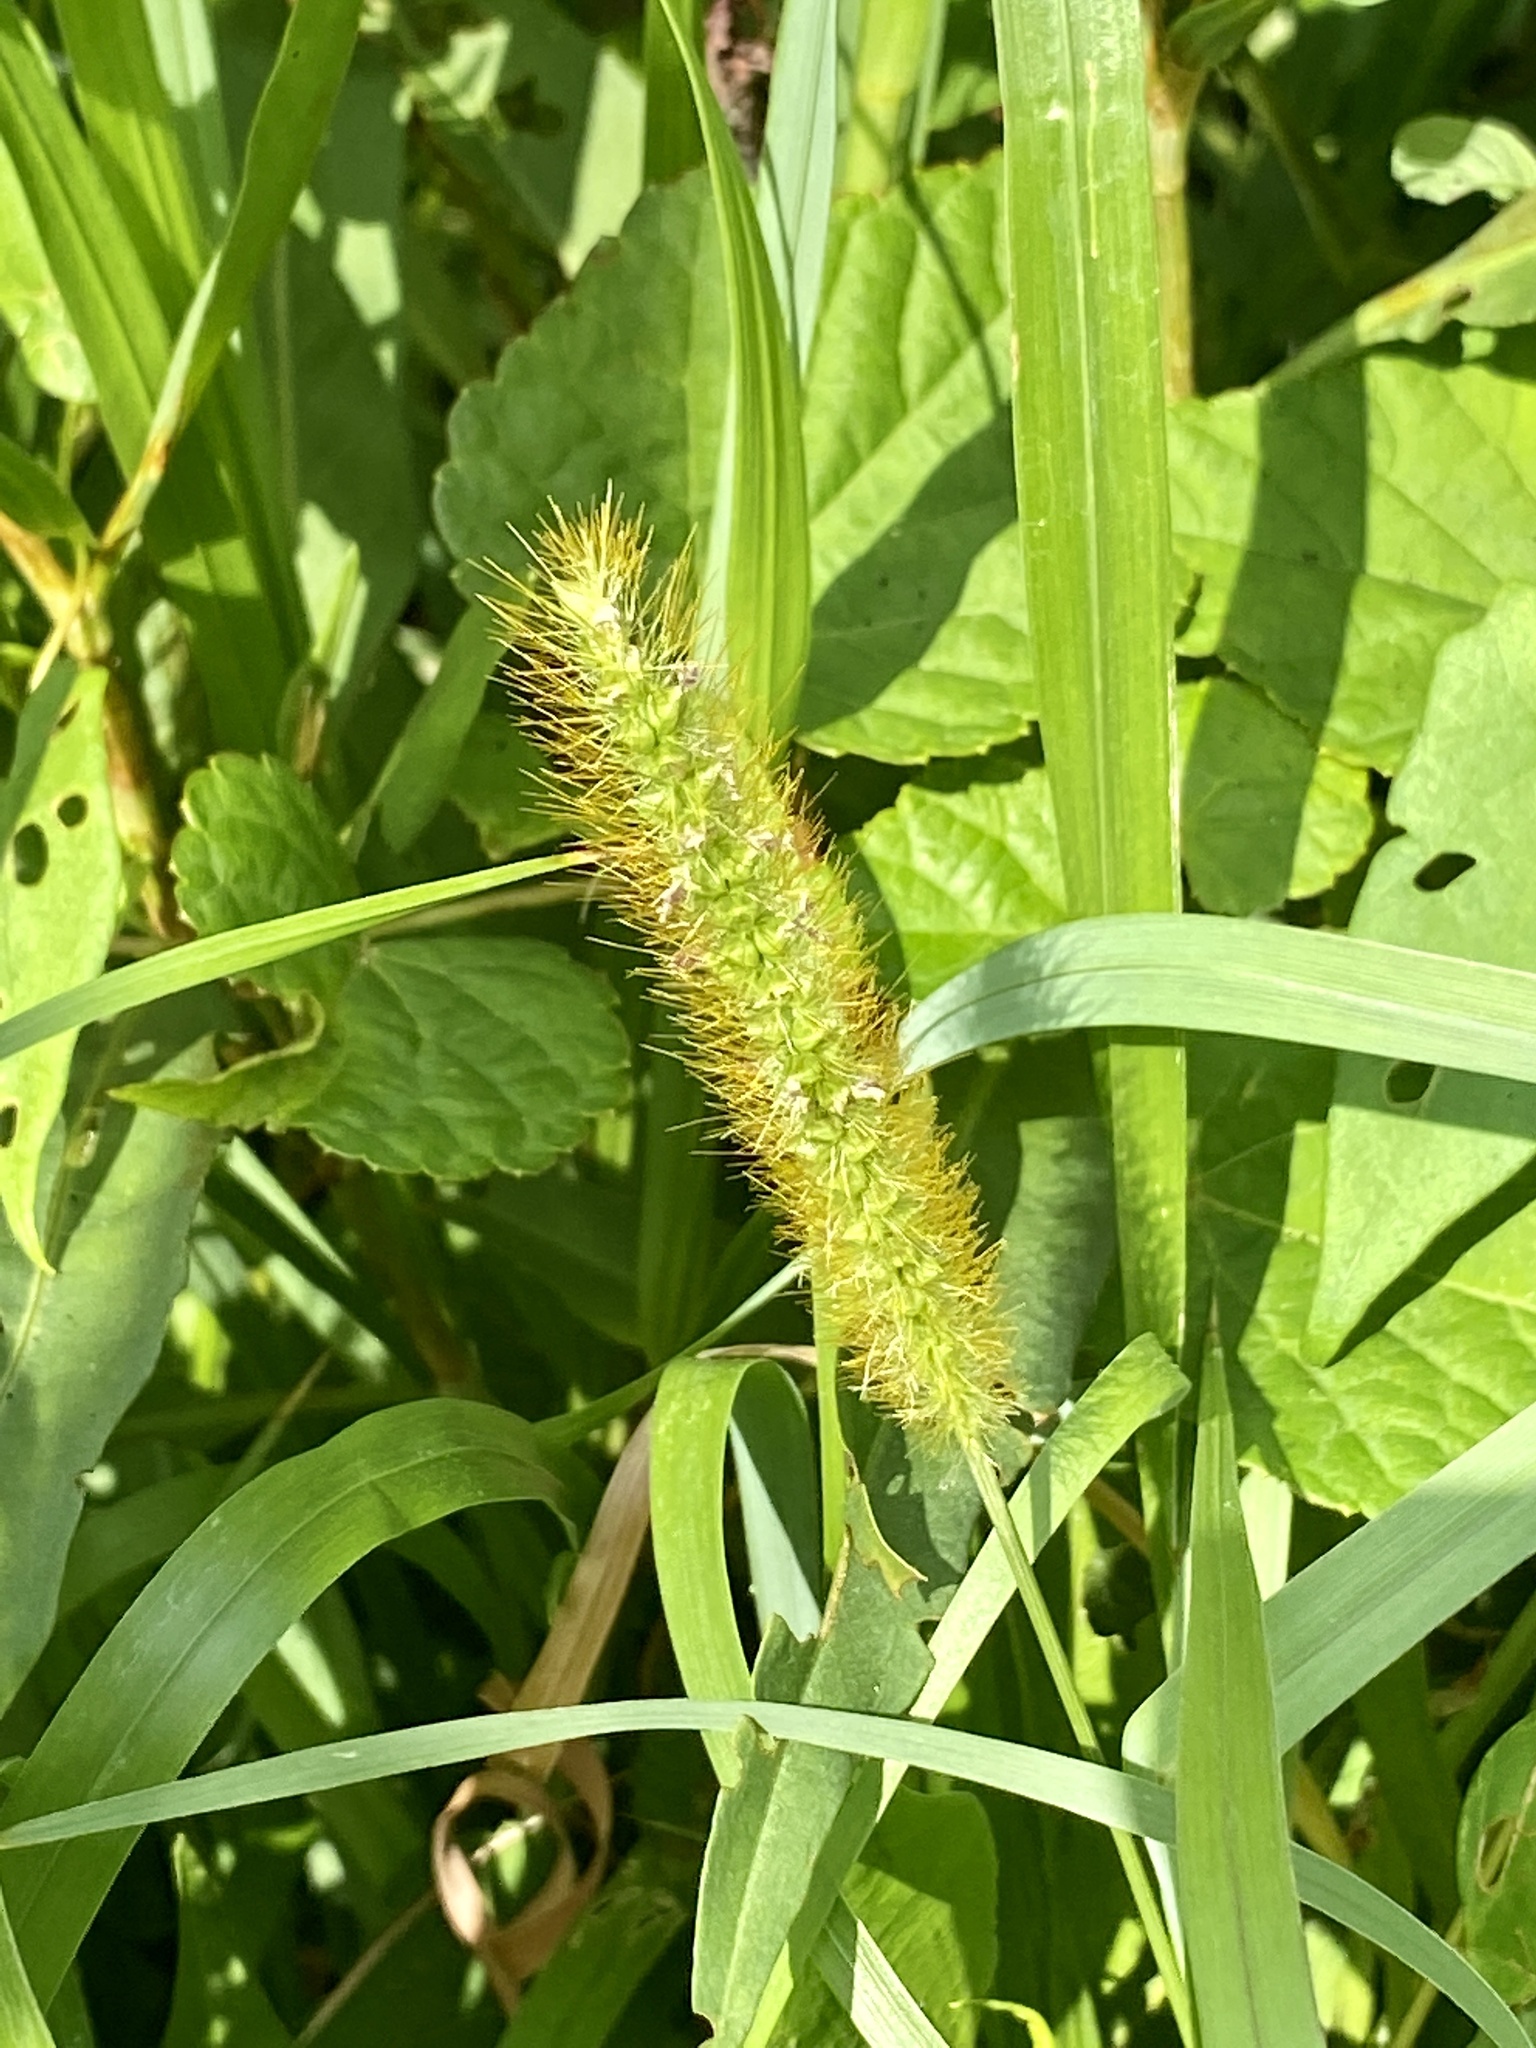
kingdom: Plantae
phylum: Tracheophyta
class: Liliopsida
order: Poales
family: Poaceae
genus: Setaria
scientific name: Setaria pumila
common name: Yellow bristle-grass
